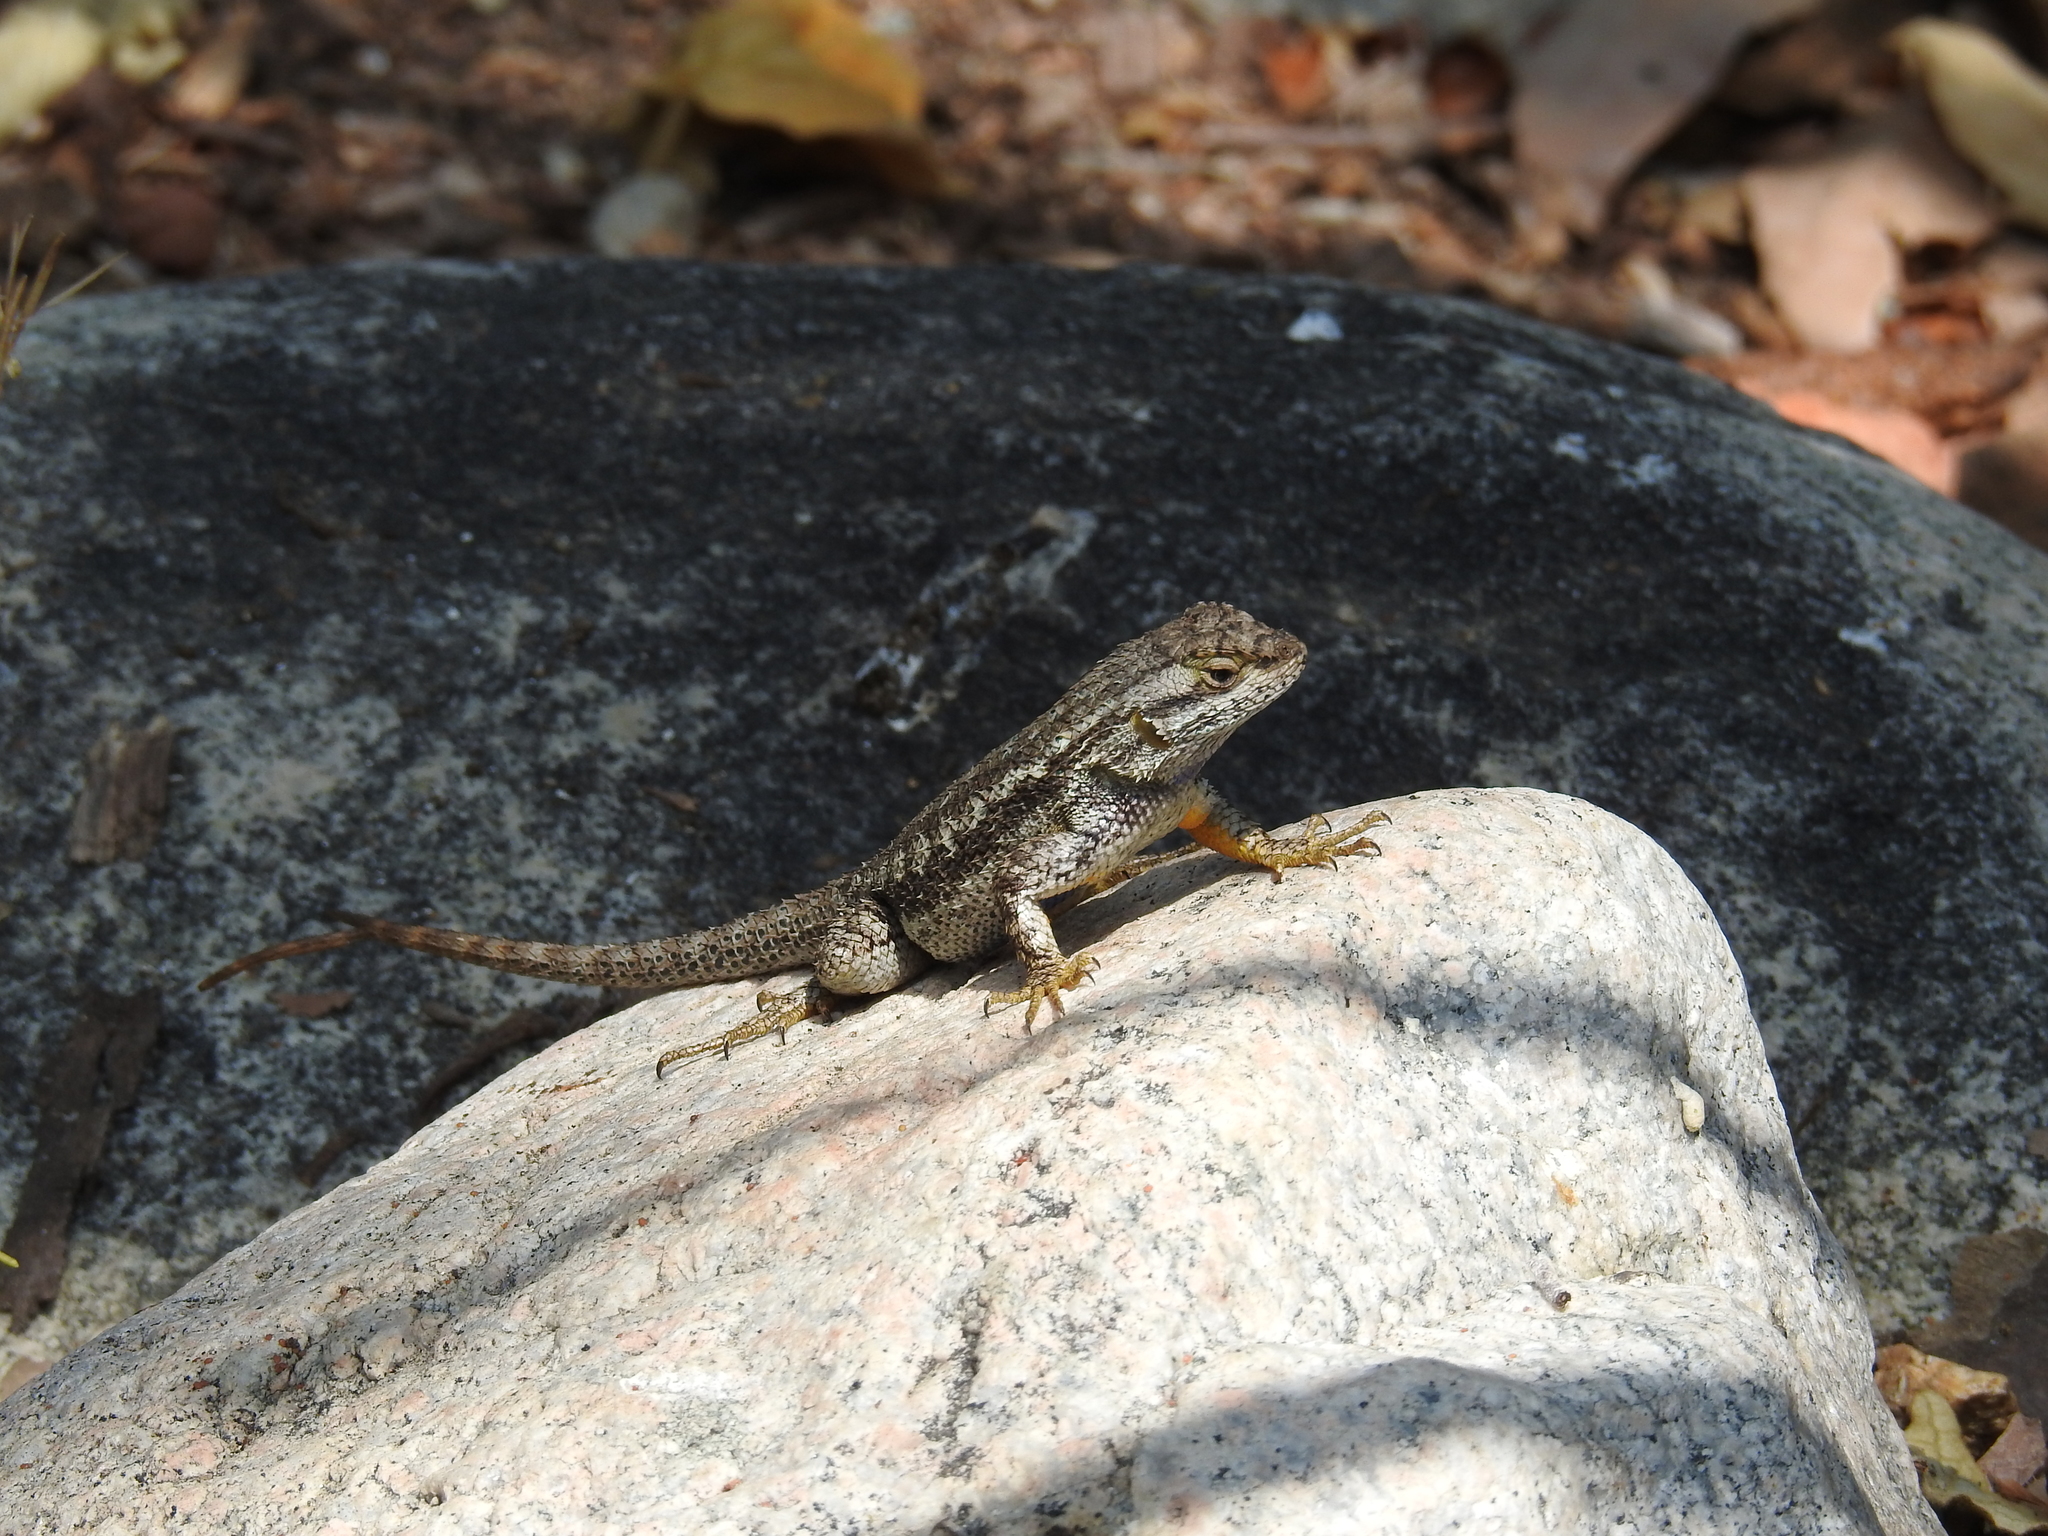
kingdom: Animalia
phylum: Chordata
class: Squamata
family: Phrynosomatidae
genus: Sceloporus
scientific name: Sceloporus occidentalis
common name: Western fence lizard
